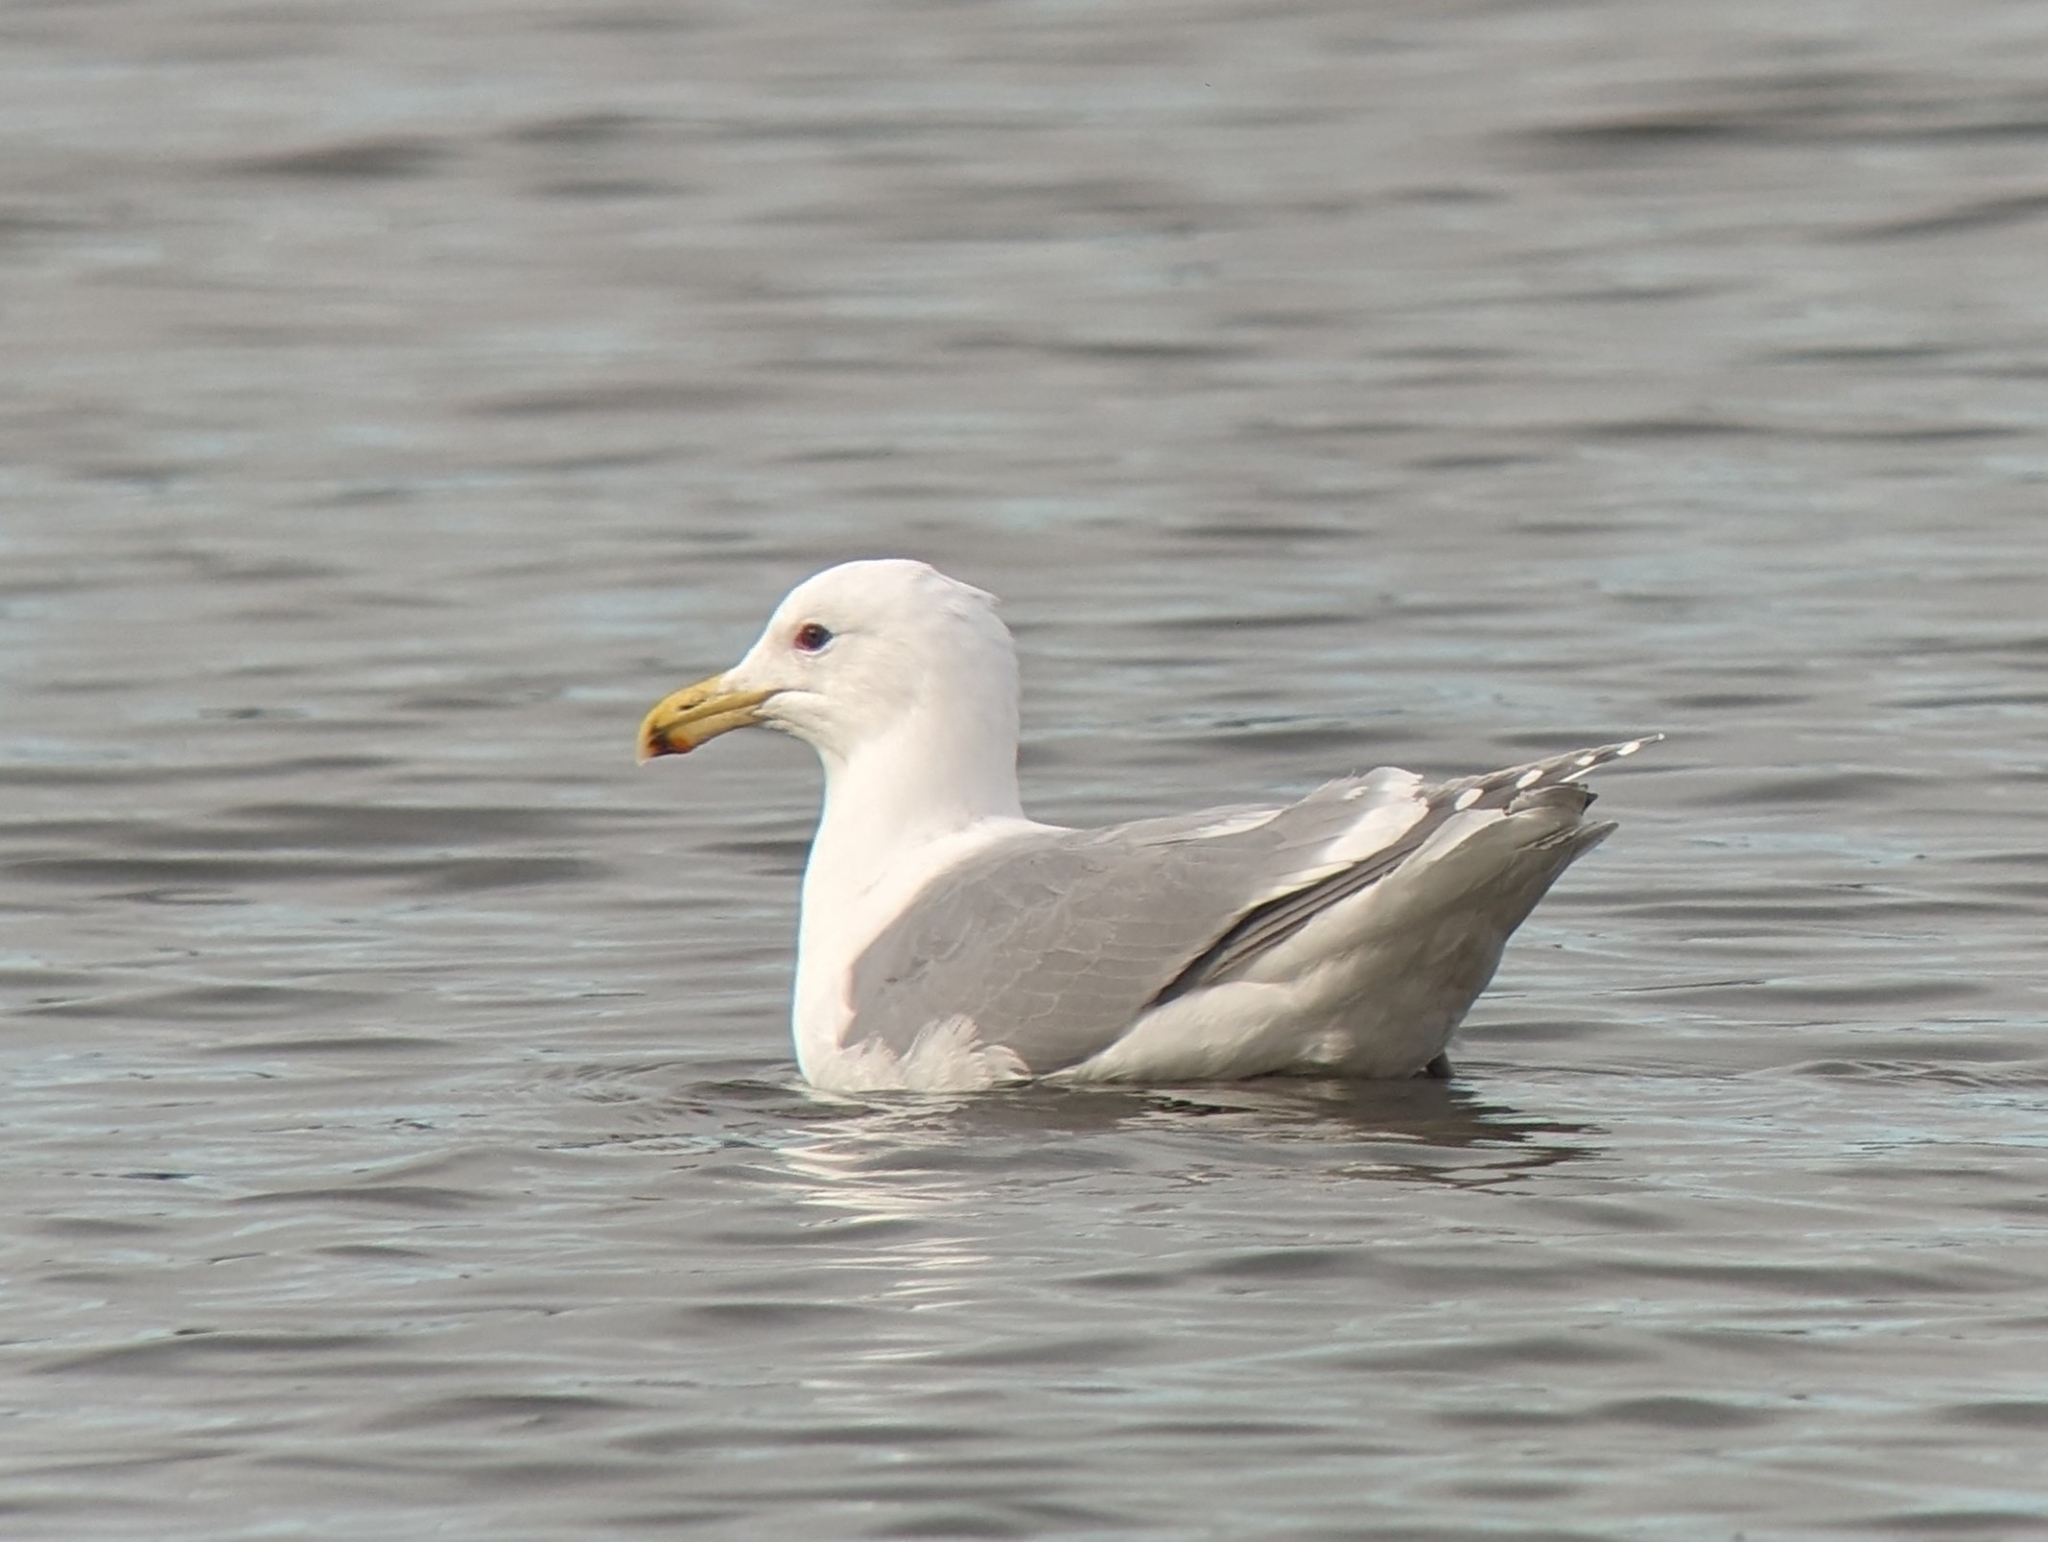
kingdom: Animalia
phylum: Chordata
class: Aves
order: Charadriiformes
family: Laridae
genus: Larus
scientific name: Larus
